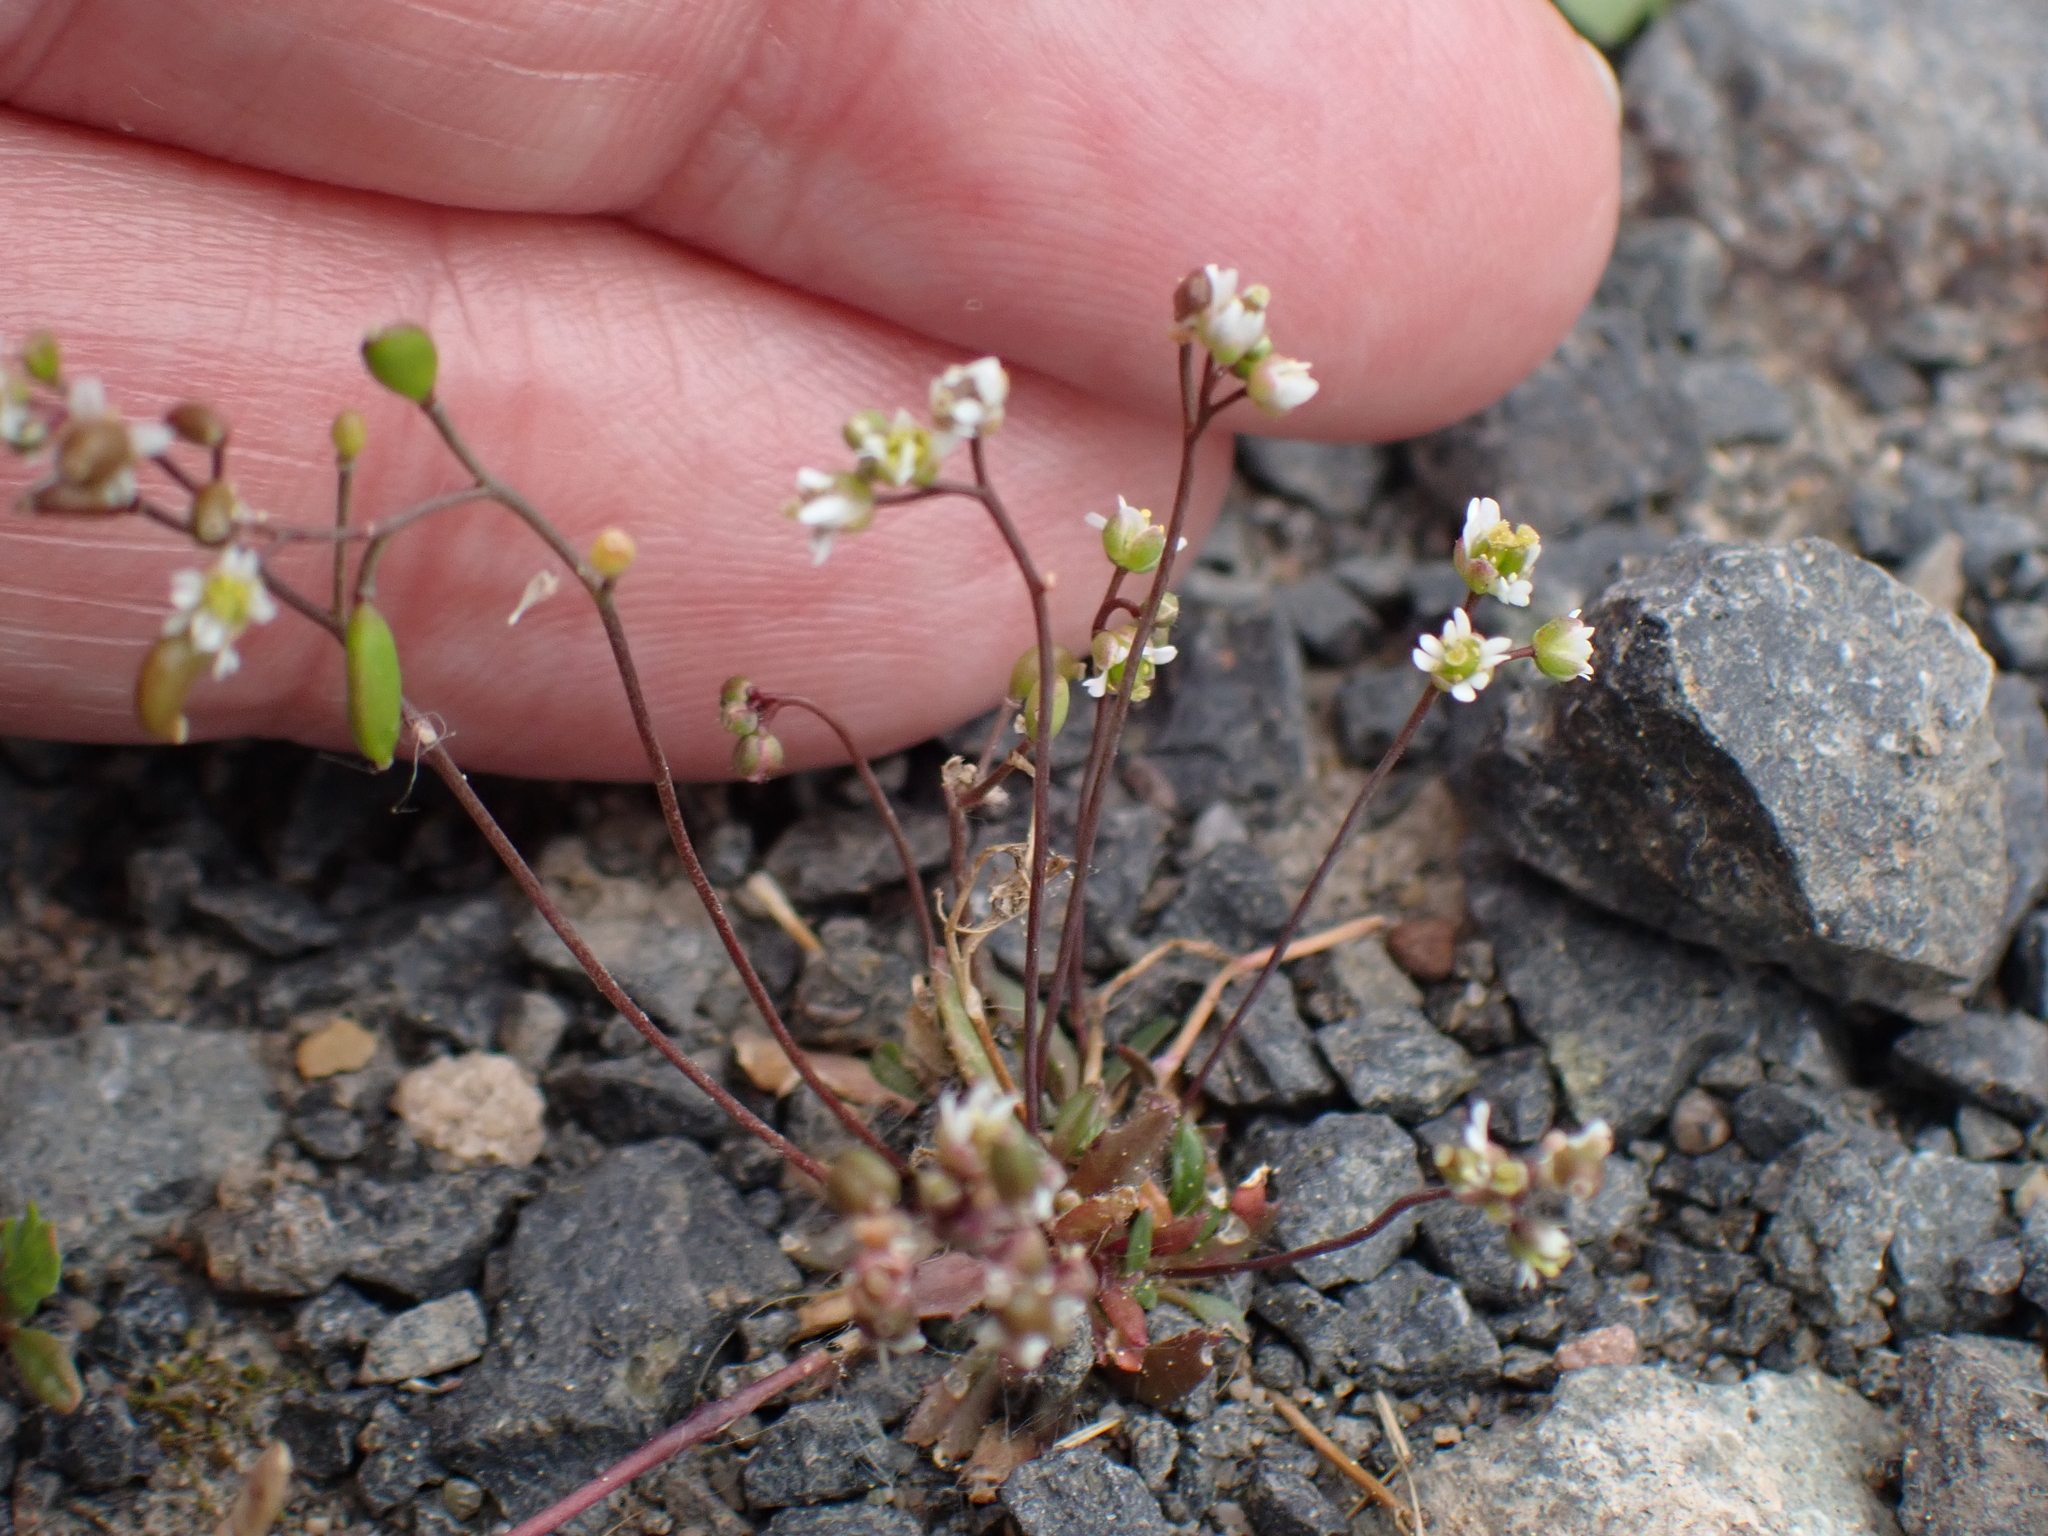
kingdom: Plantae
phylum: Tracheophyta
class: Magnoliopsida
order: Brassicales
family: Brassicaceae
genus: Draba
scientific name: Draba verna
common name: Spring draba
